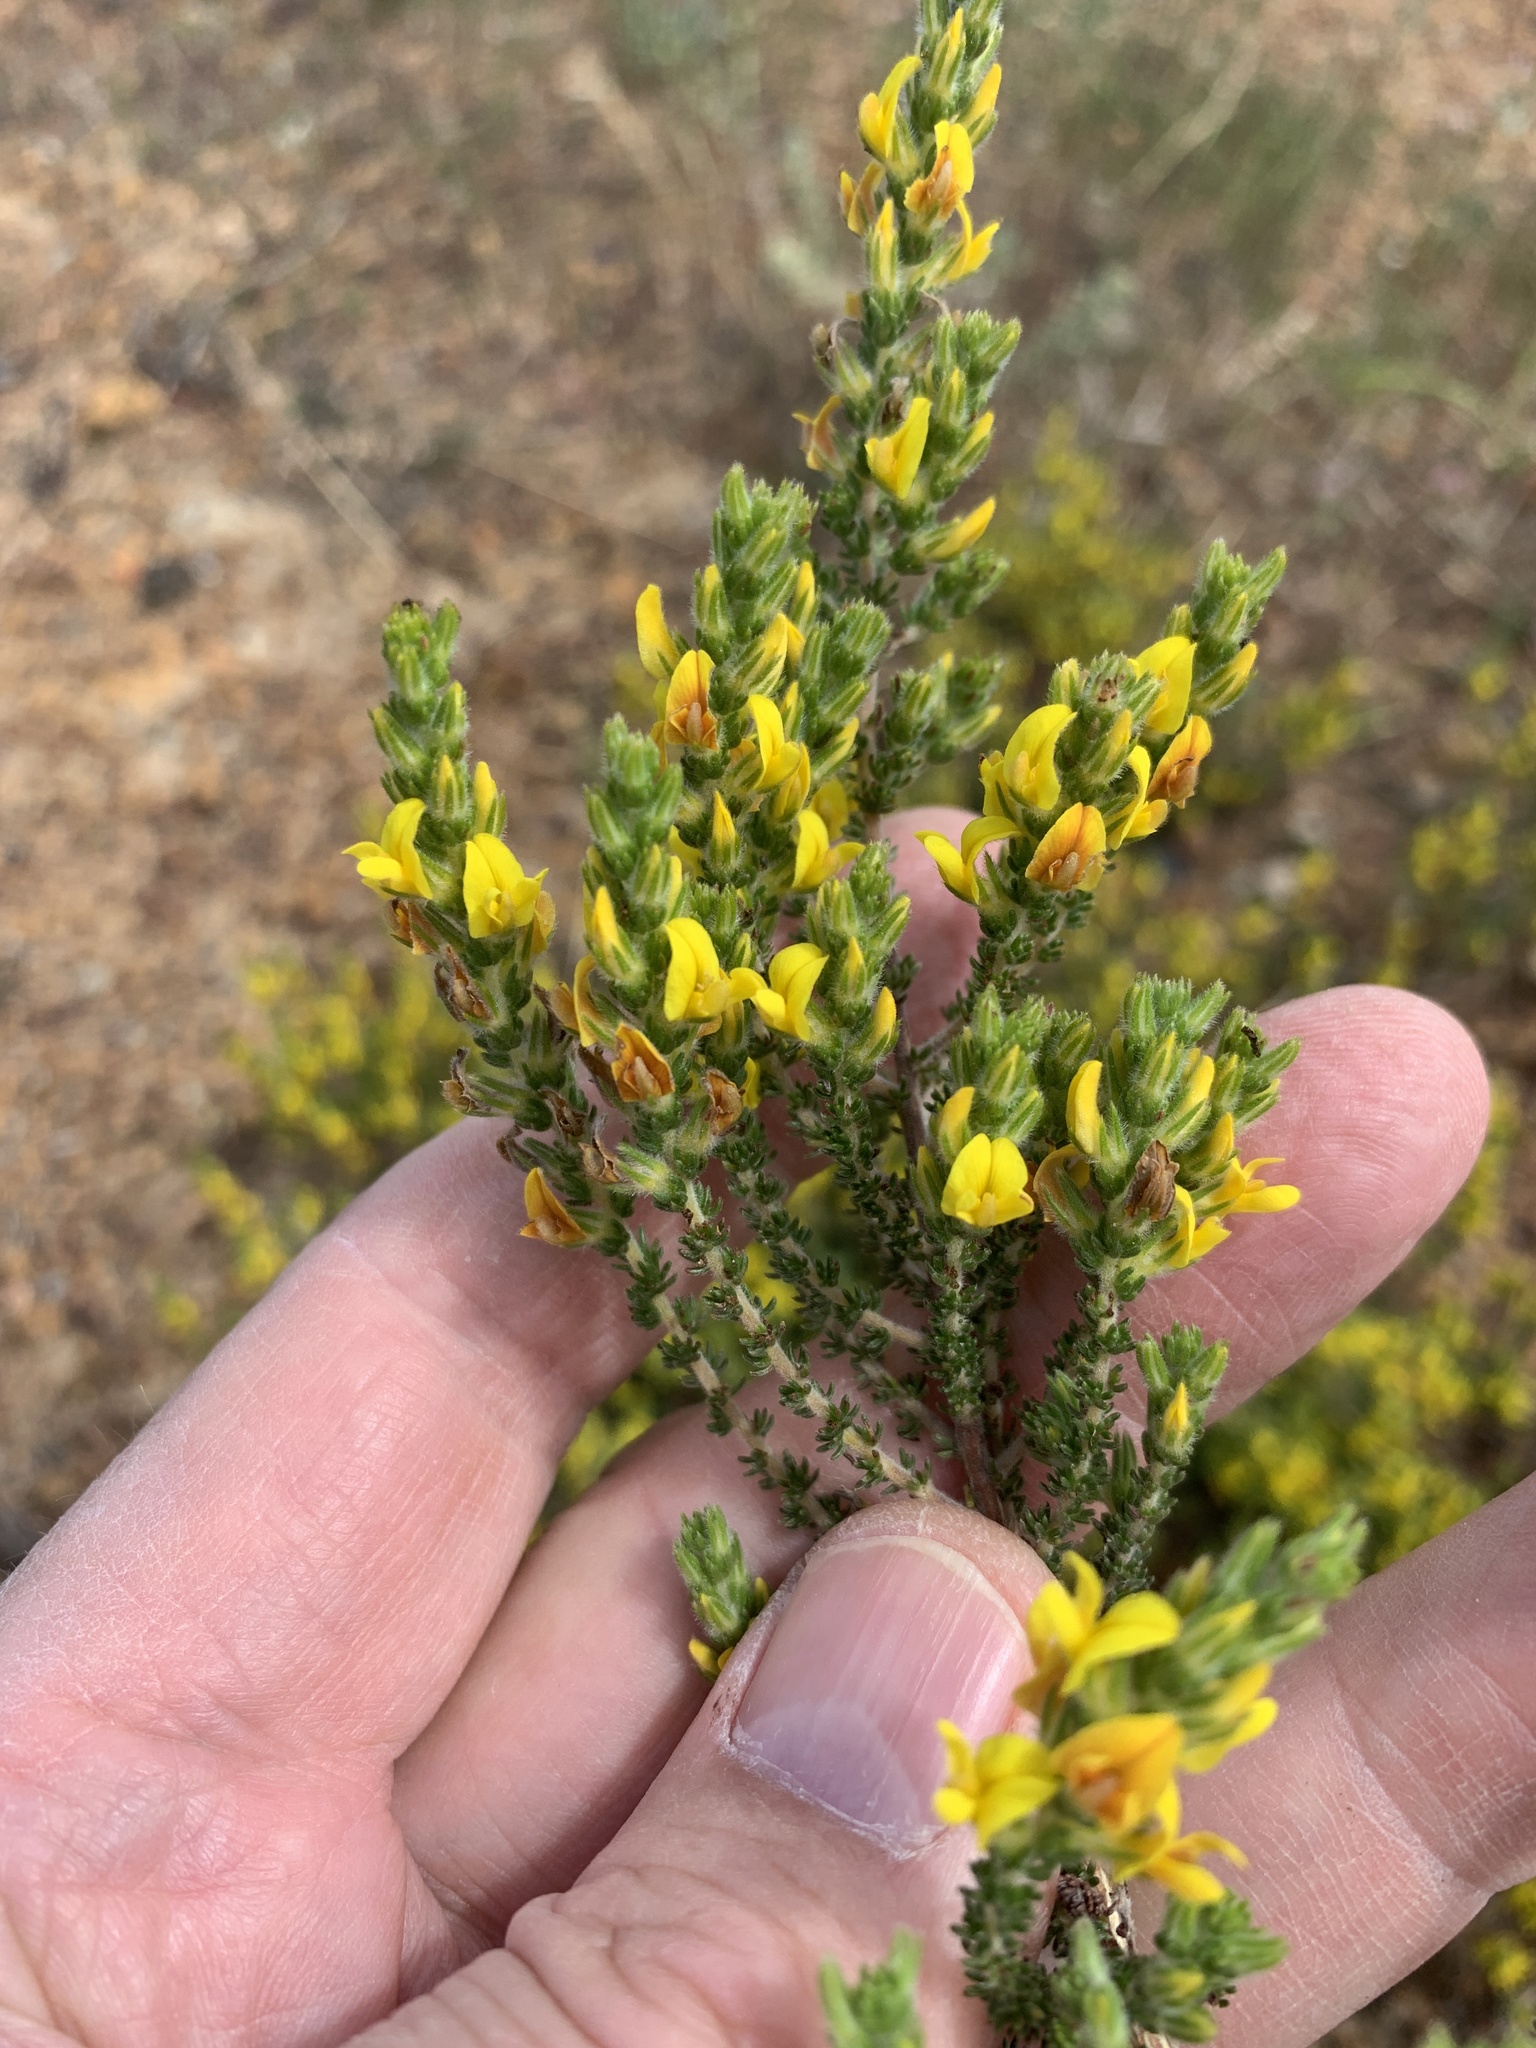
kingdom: Plantae
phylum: Tracheophyta
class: Magnoliopsida
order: Fabales
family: Fabaceae
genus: Aspalathus
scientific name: Aspalathus ericifolia
